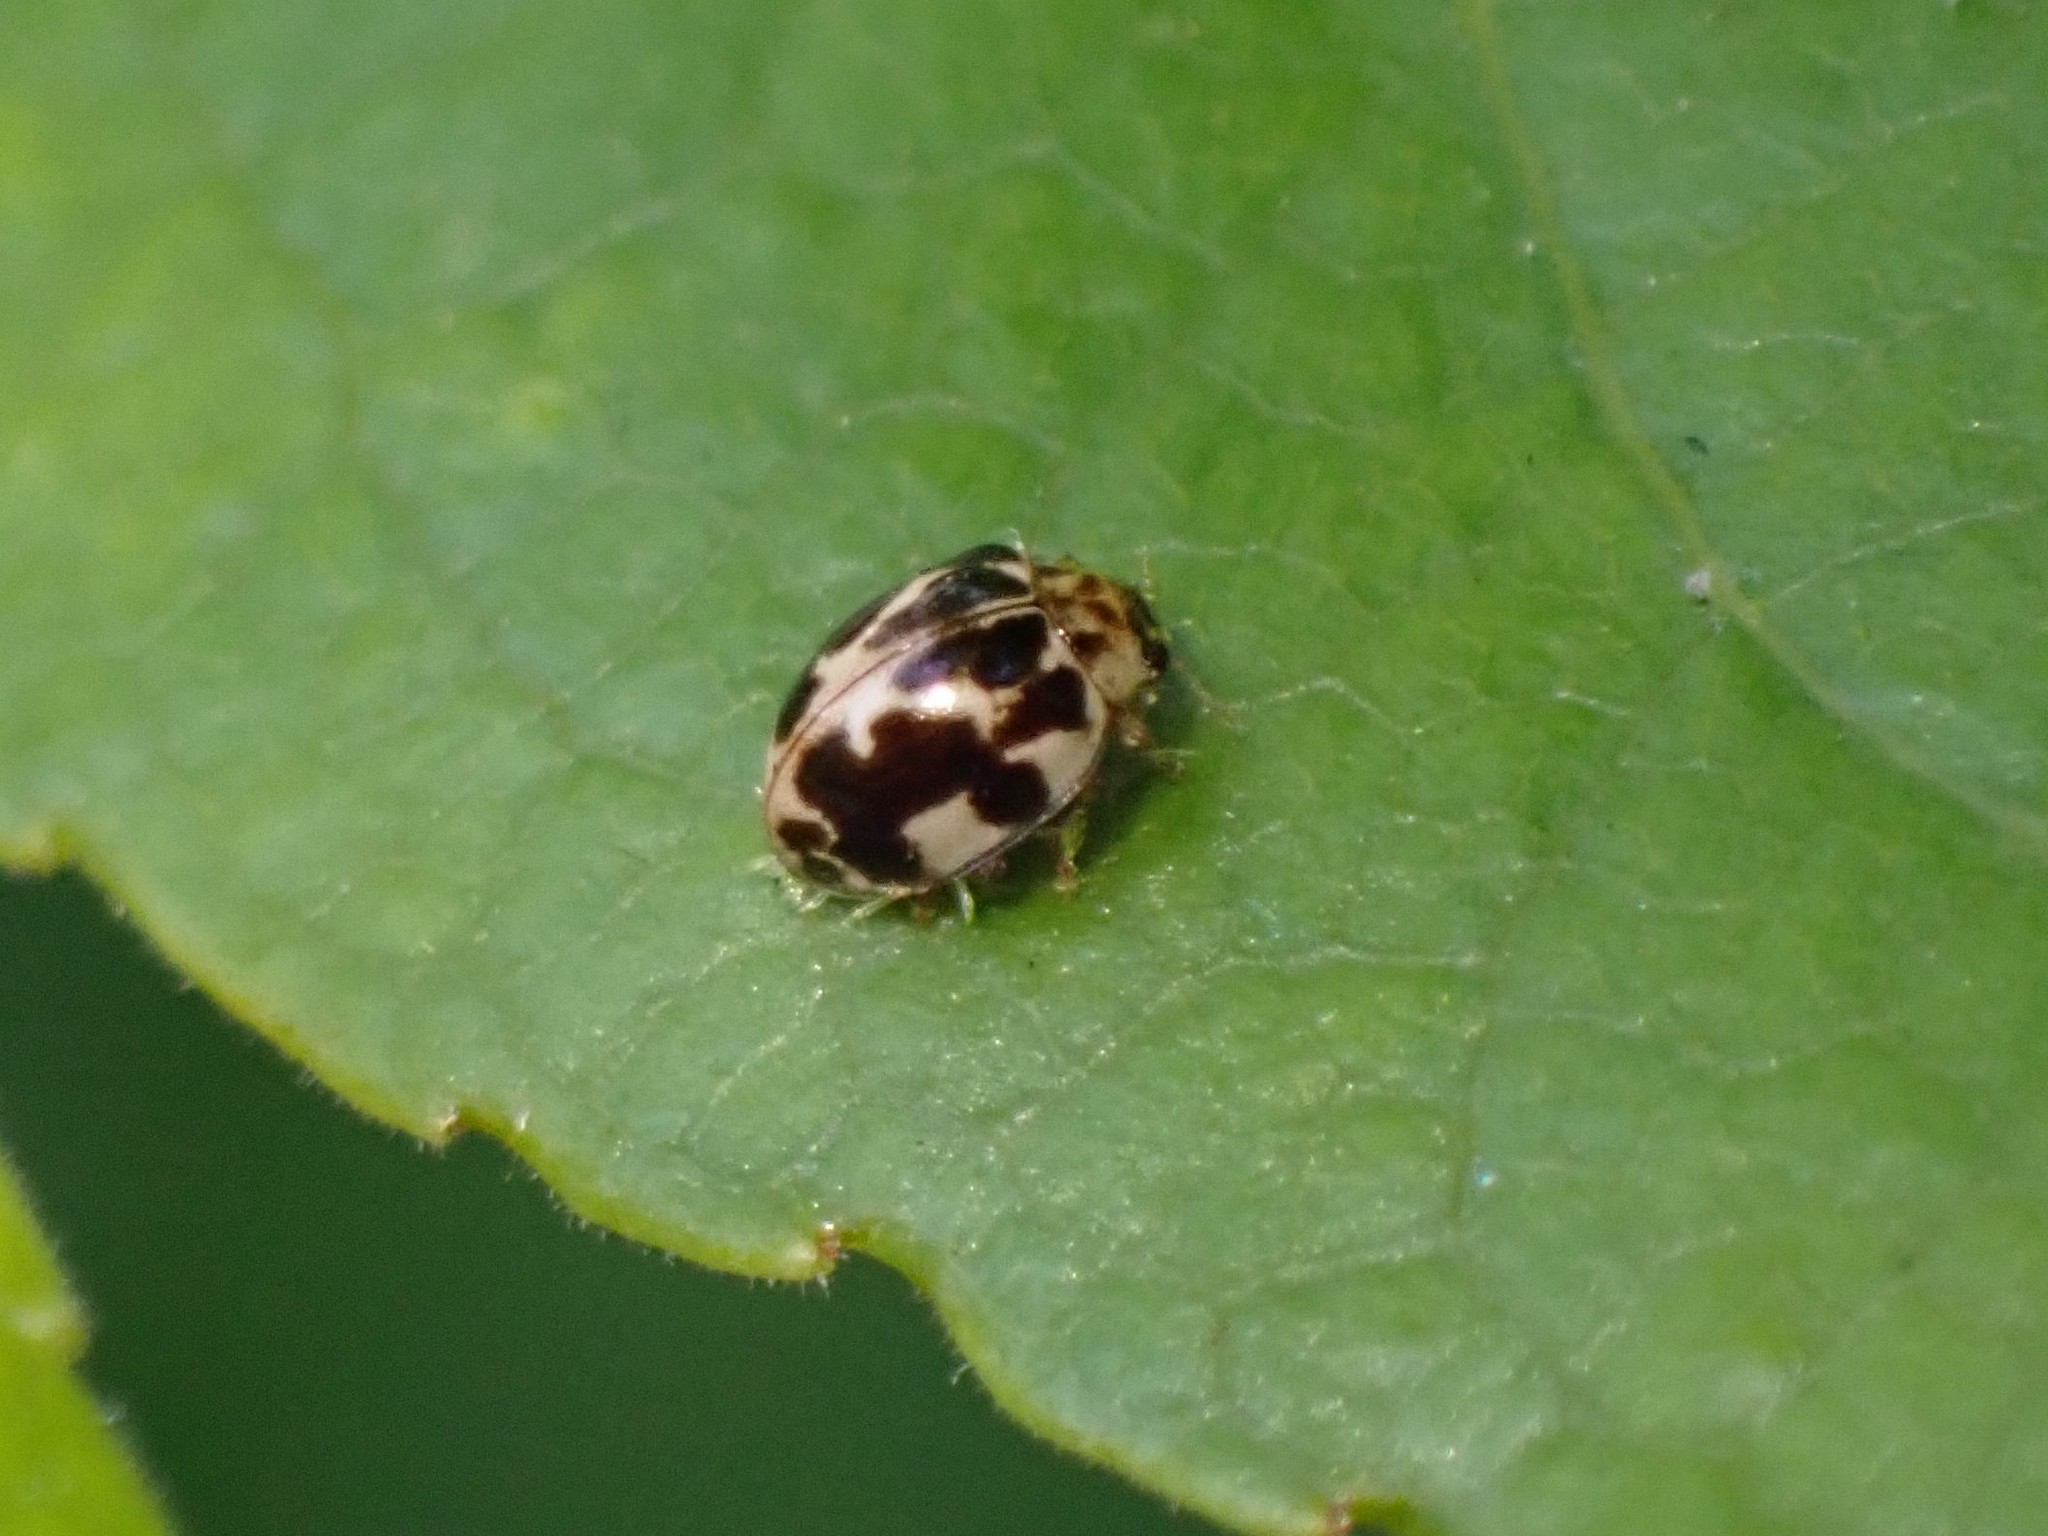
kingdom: Animalia
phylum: Arthropoda
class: Insecta
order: Coleoptera
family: Coccinellidae
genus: Psyllobora
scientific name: Psyllobora vigintimaculata
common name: Ladybird beetle
